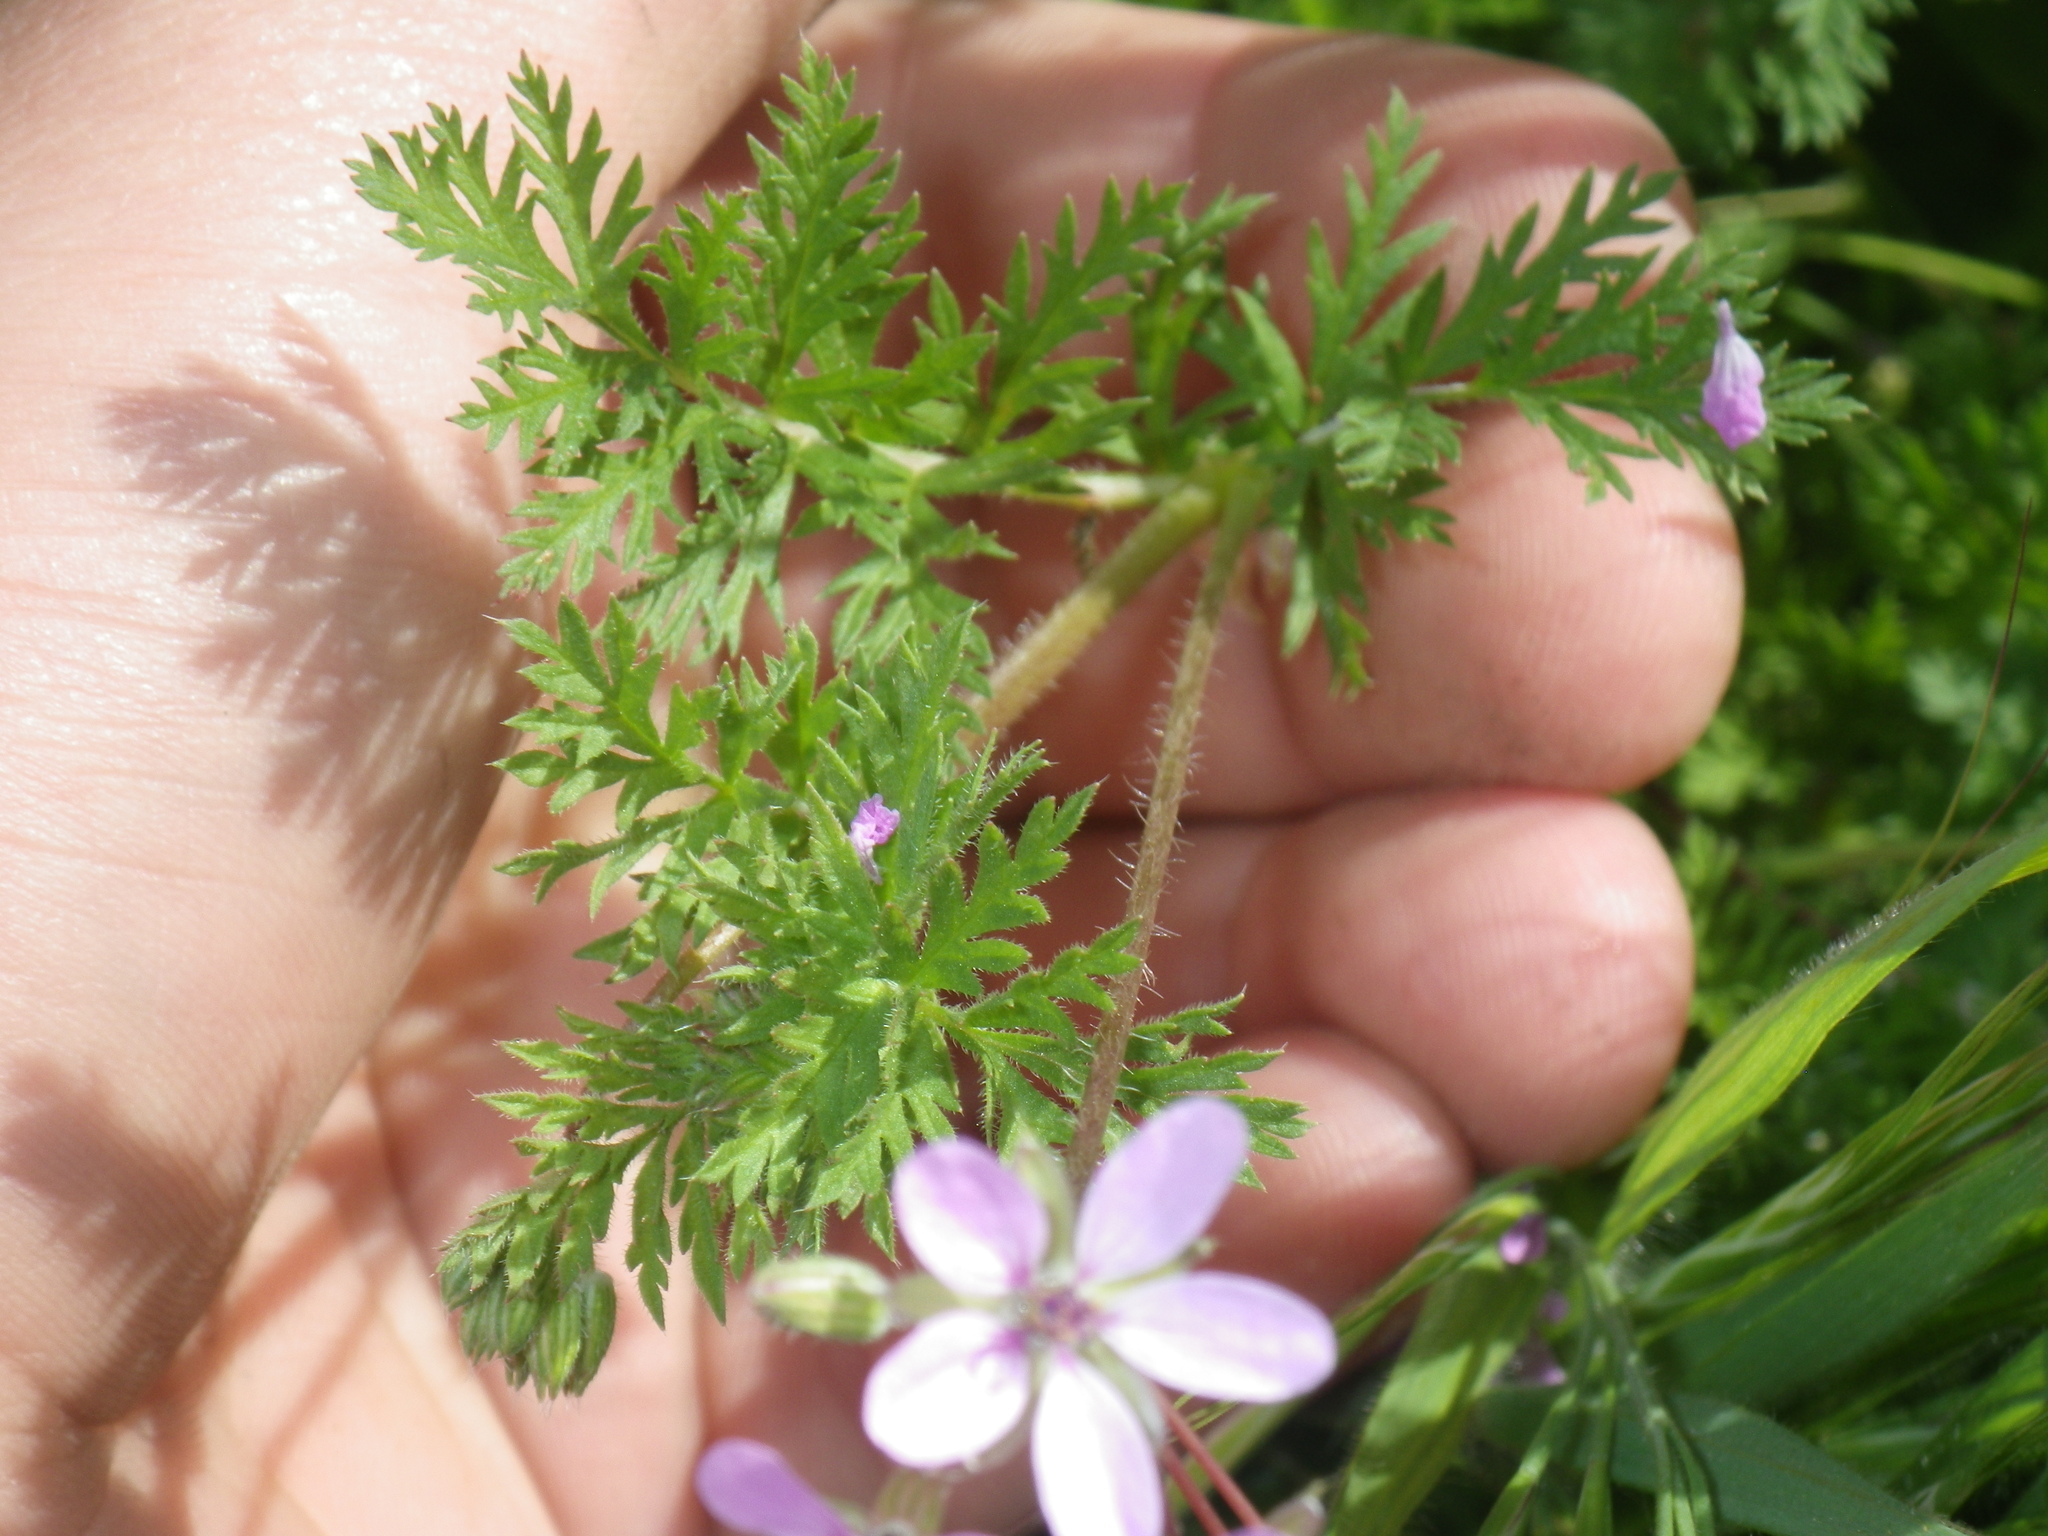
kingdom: Plantae
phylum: Tracheophyta
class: Magnoliopsida
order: Geraniales
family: Geraniaceae
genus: Erodium
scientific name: Erodium cicutarium
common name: Common stork's-bill
